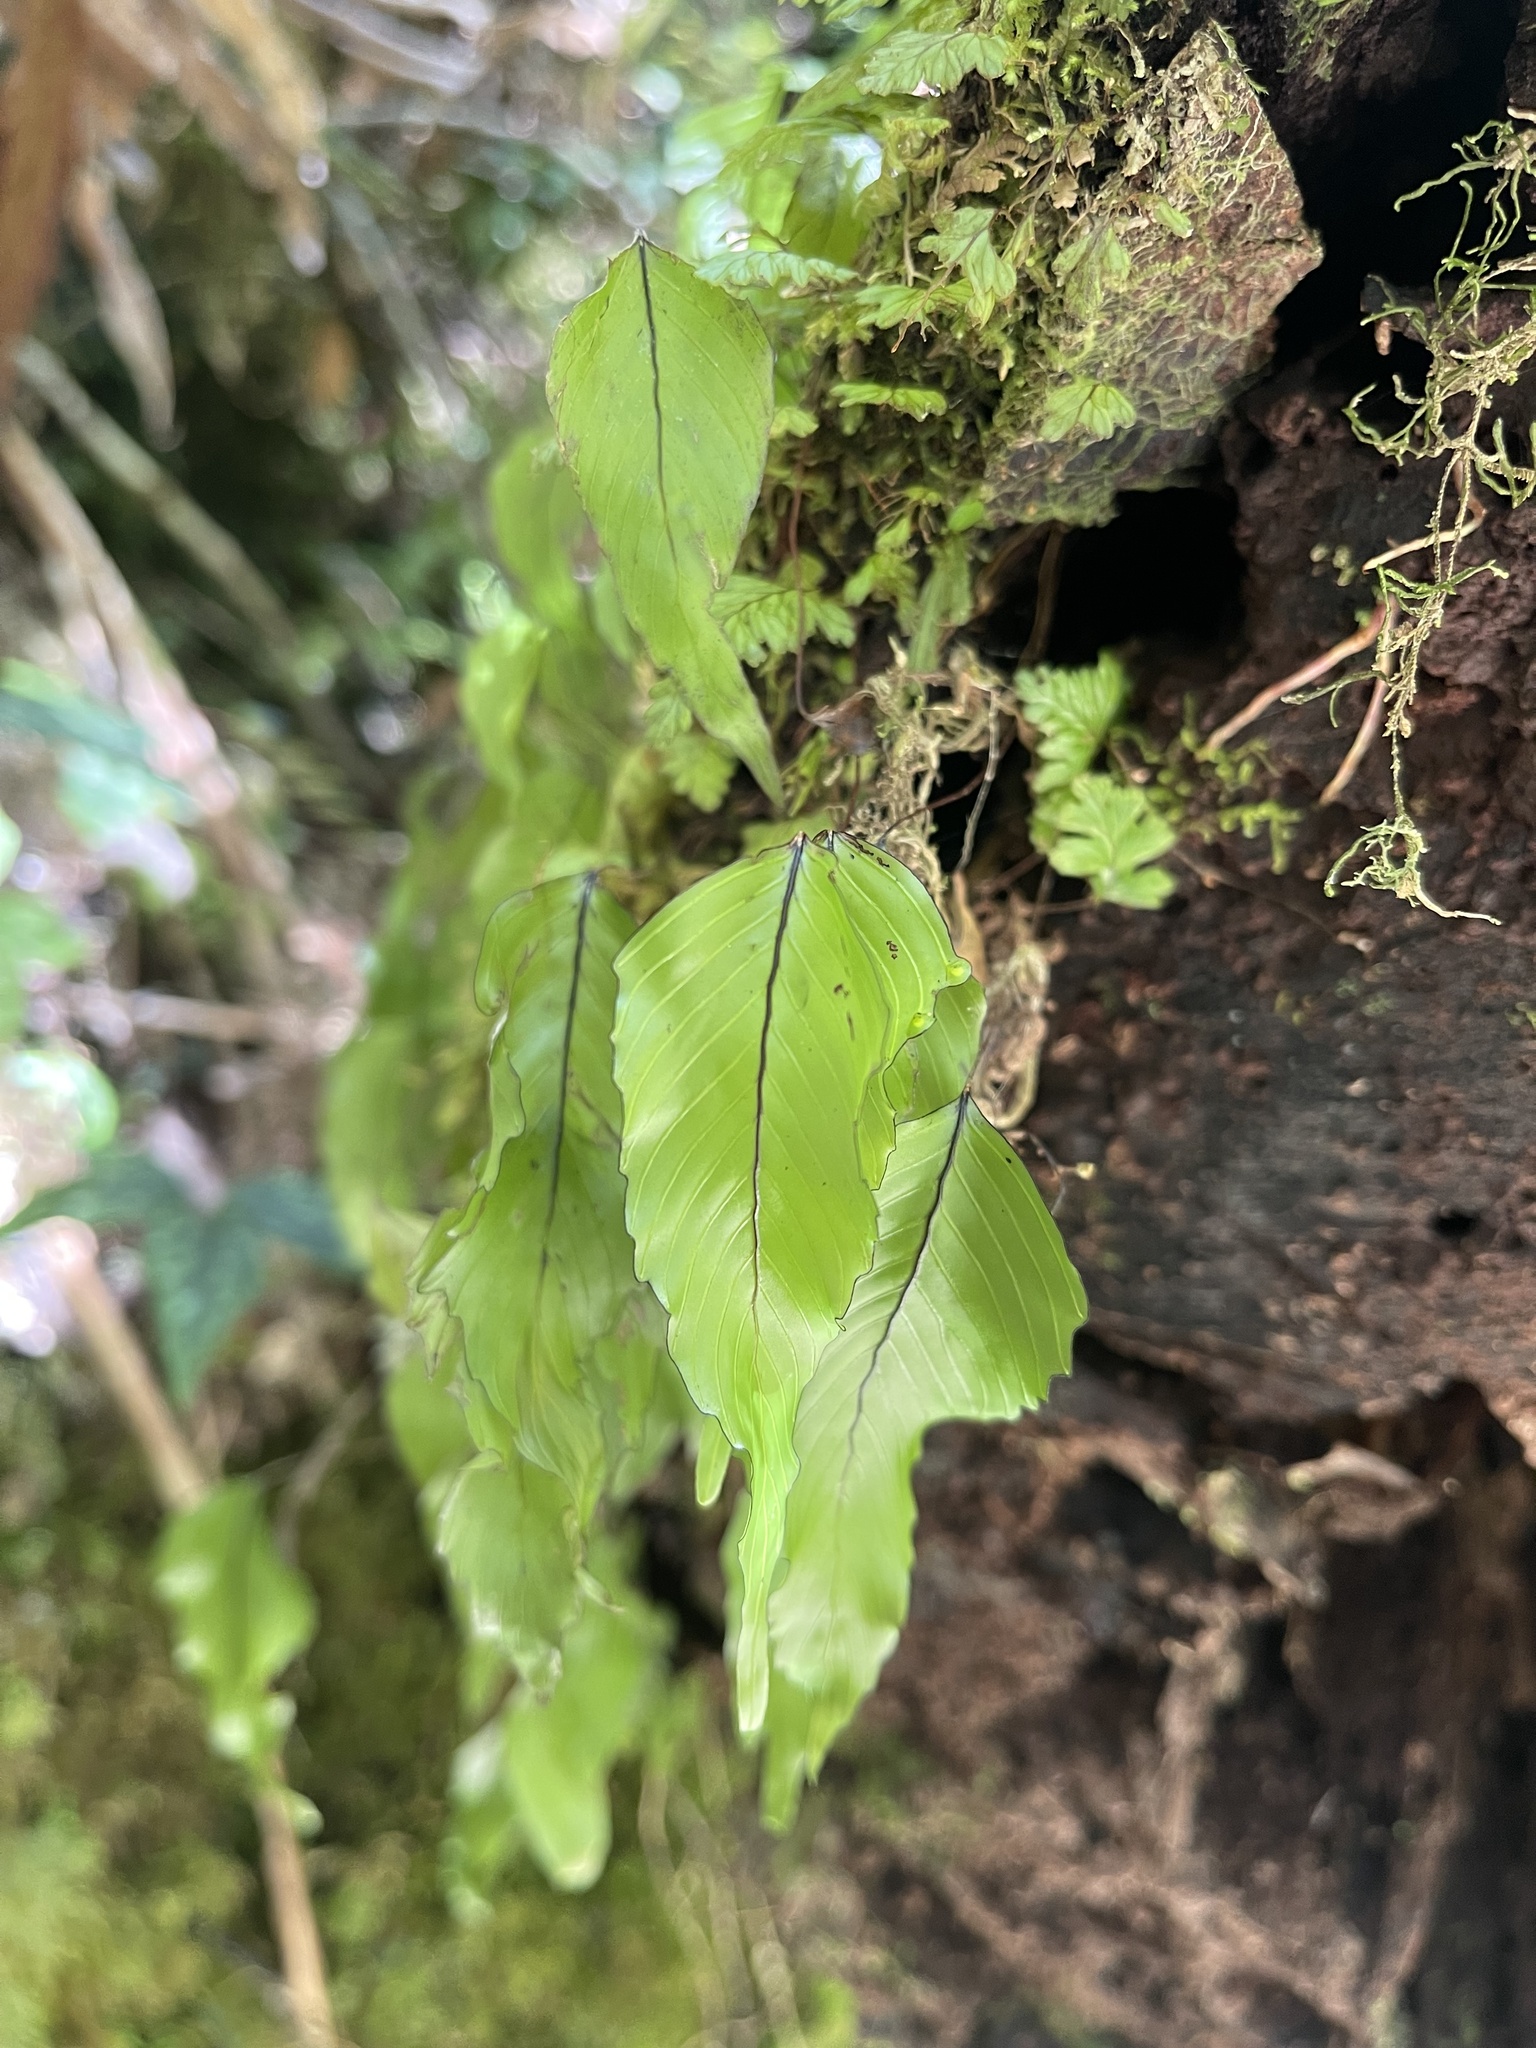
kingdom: Plantae
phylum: Tracheophyta
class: Polypodiopsida
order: Hymenophyllales
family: Hymenophyllaceae
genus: Hymenophyllum
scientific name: Hymenophyllum cruentum
